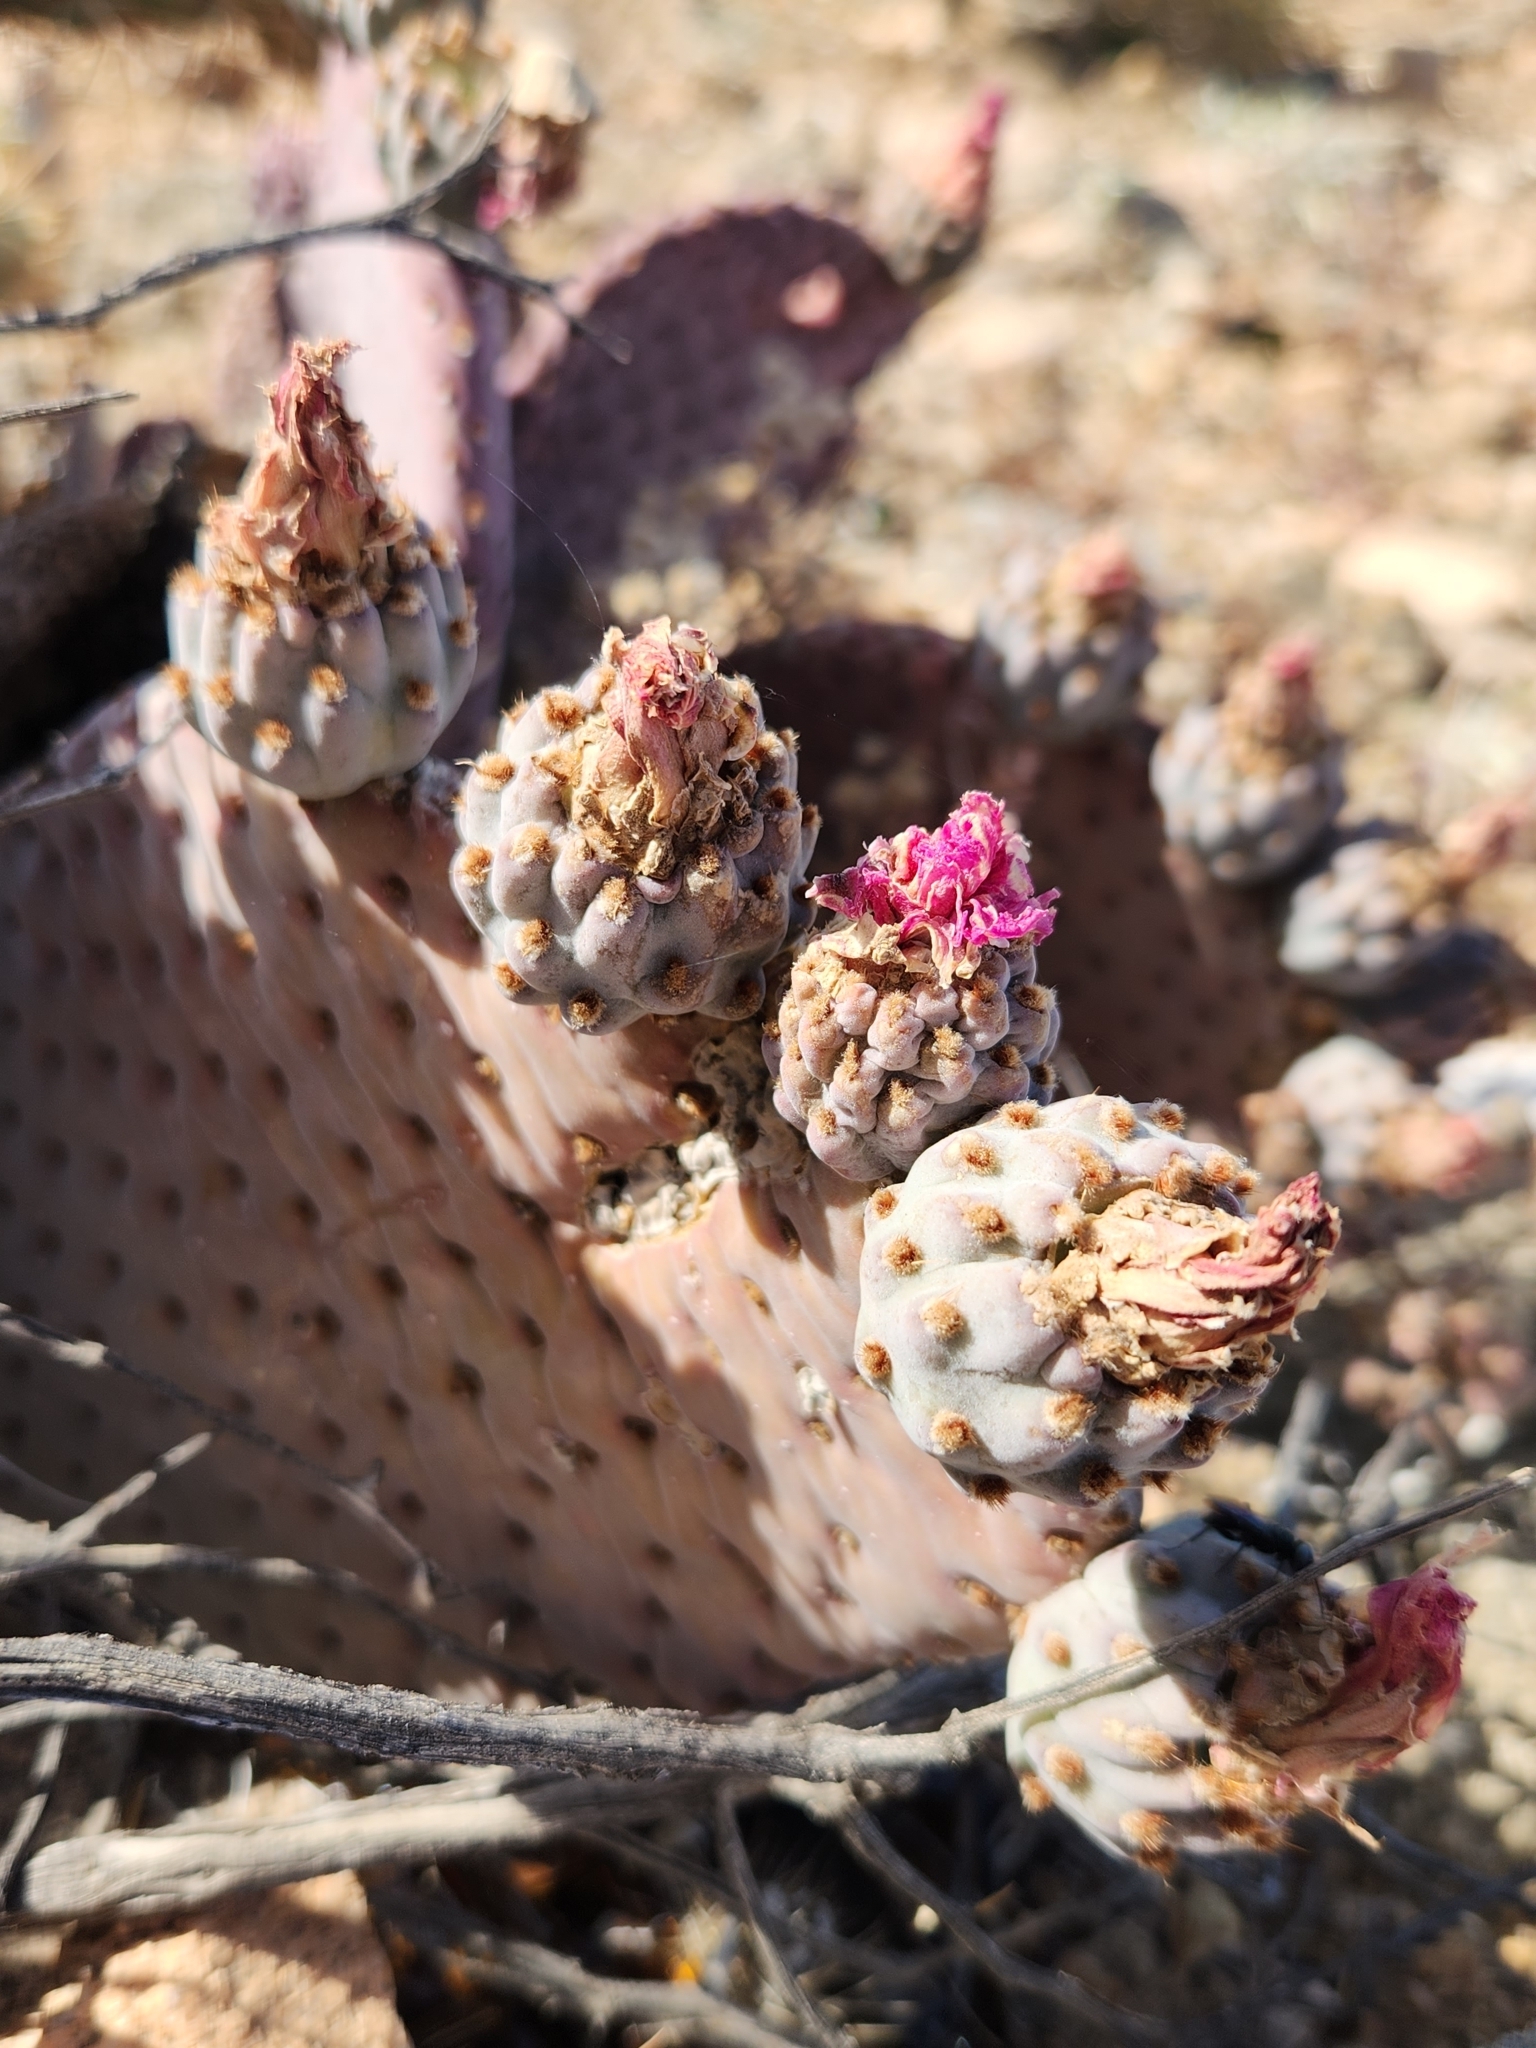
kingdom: Plantae
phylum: Tracheophyta
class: Magnoliopsida
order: Caryophyllales
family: Cactaceae
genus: Opuntia
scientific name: Opuntia basilaris
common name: Beavertail prickly-pear
